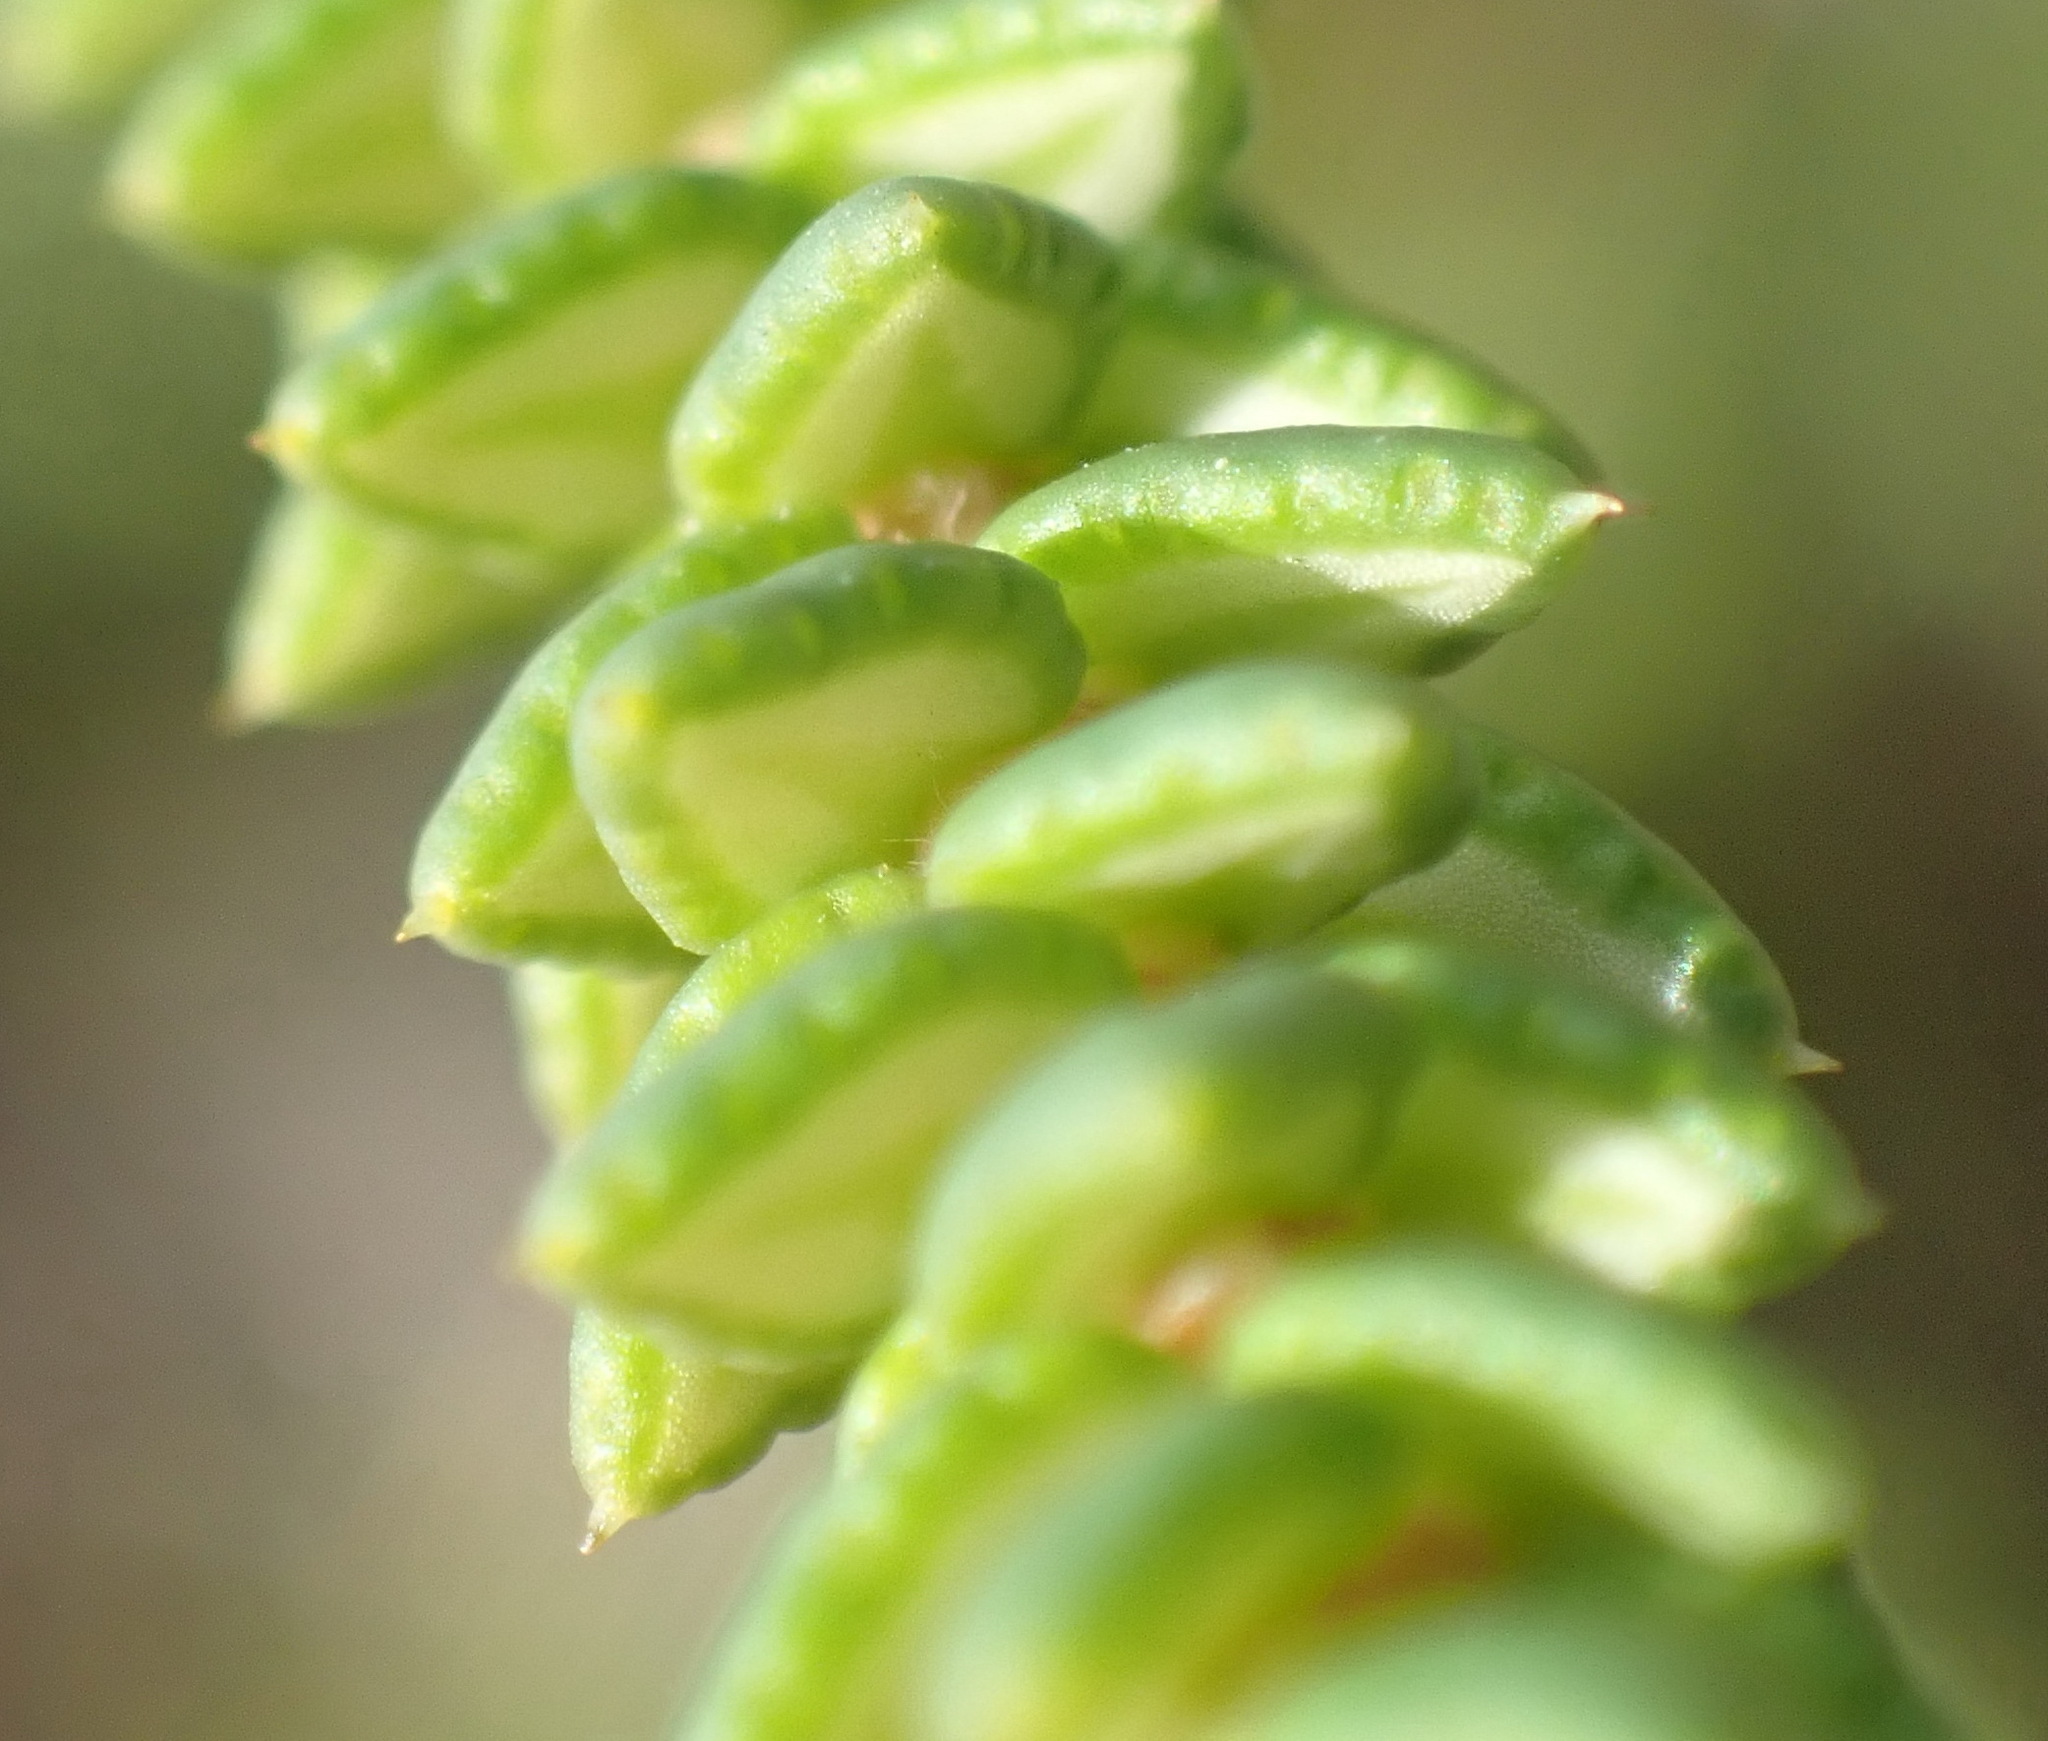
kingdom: Plantae
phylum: Tracheophyta
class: Magnoliopsida
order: Sapindales
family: Rutaceae
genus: Agathosma
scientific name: Agathosma apiculata
